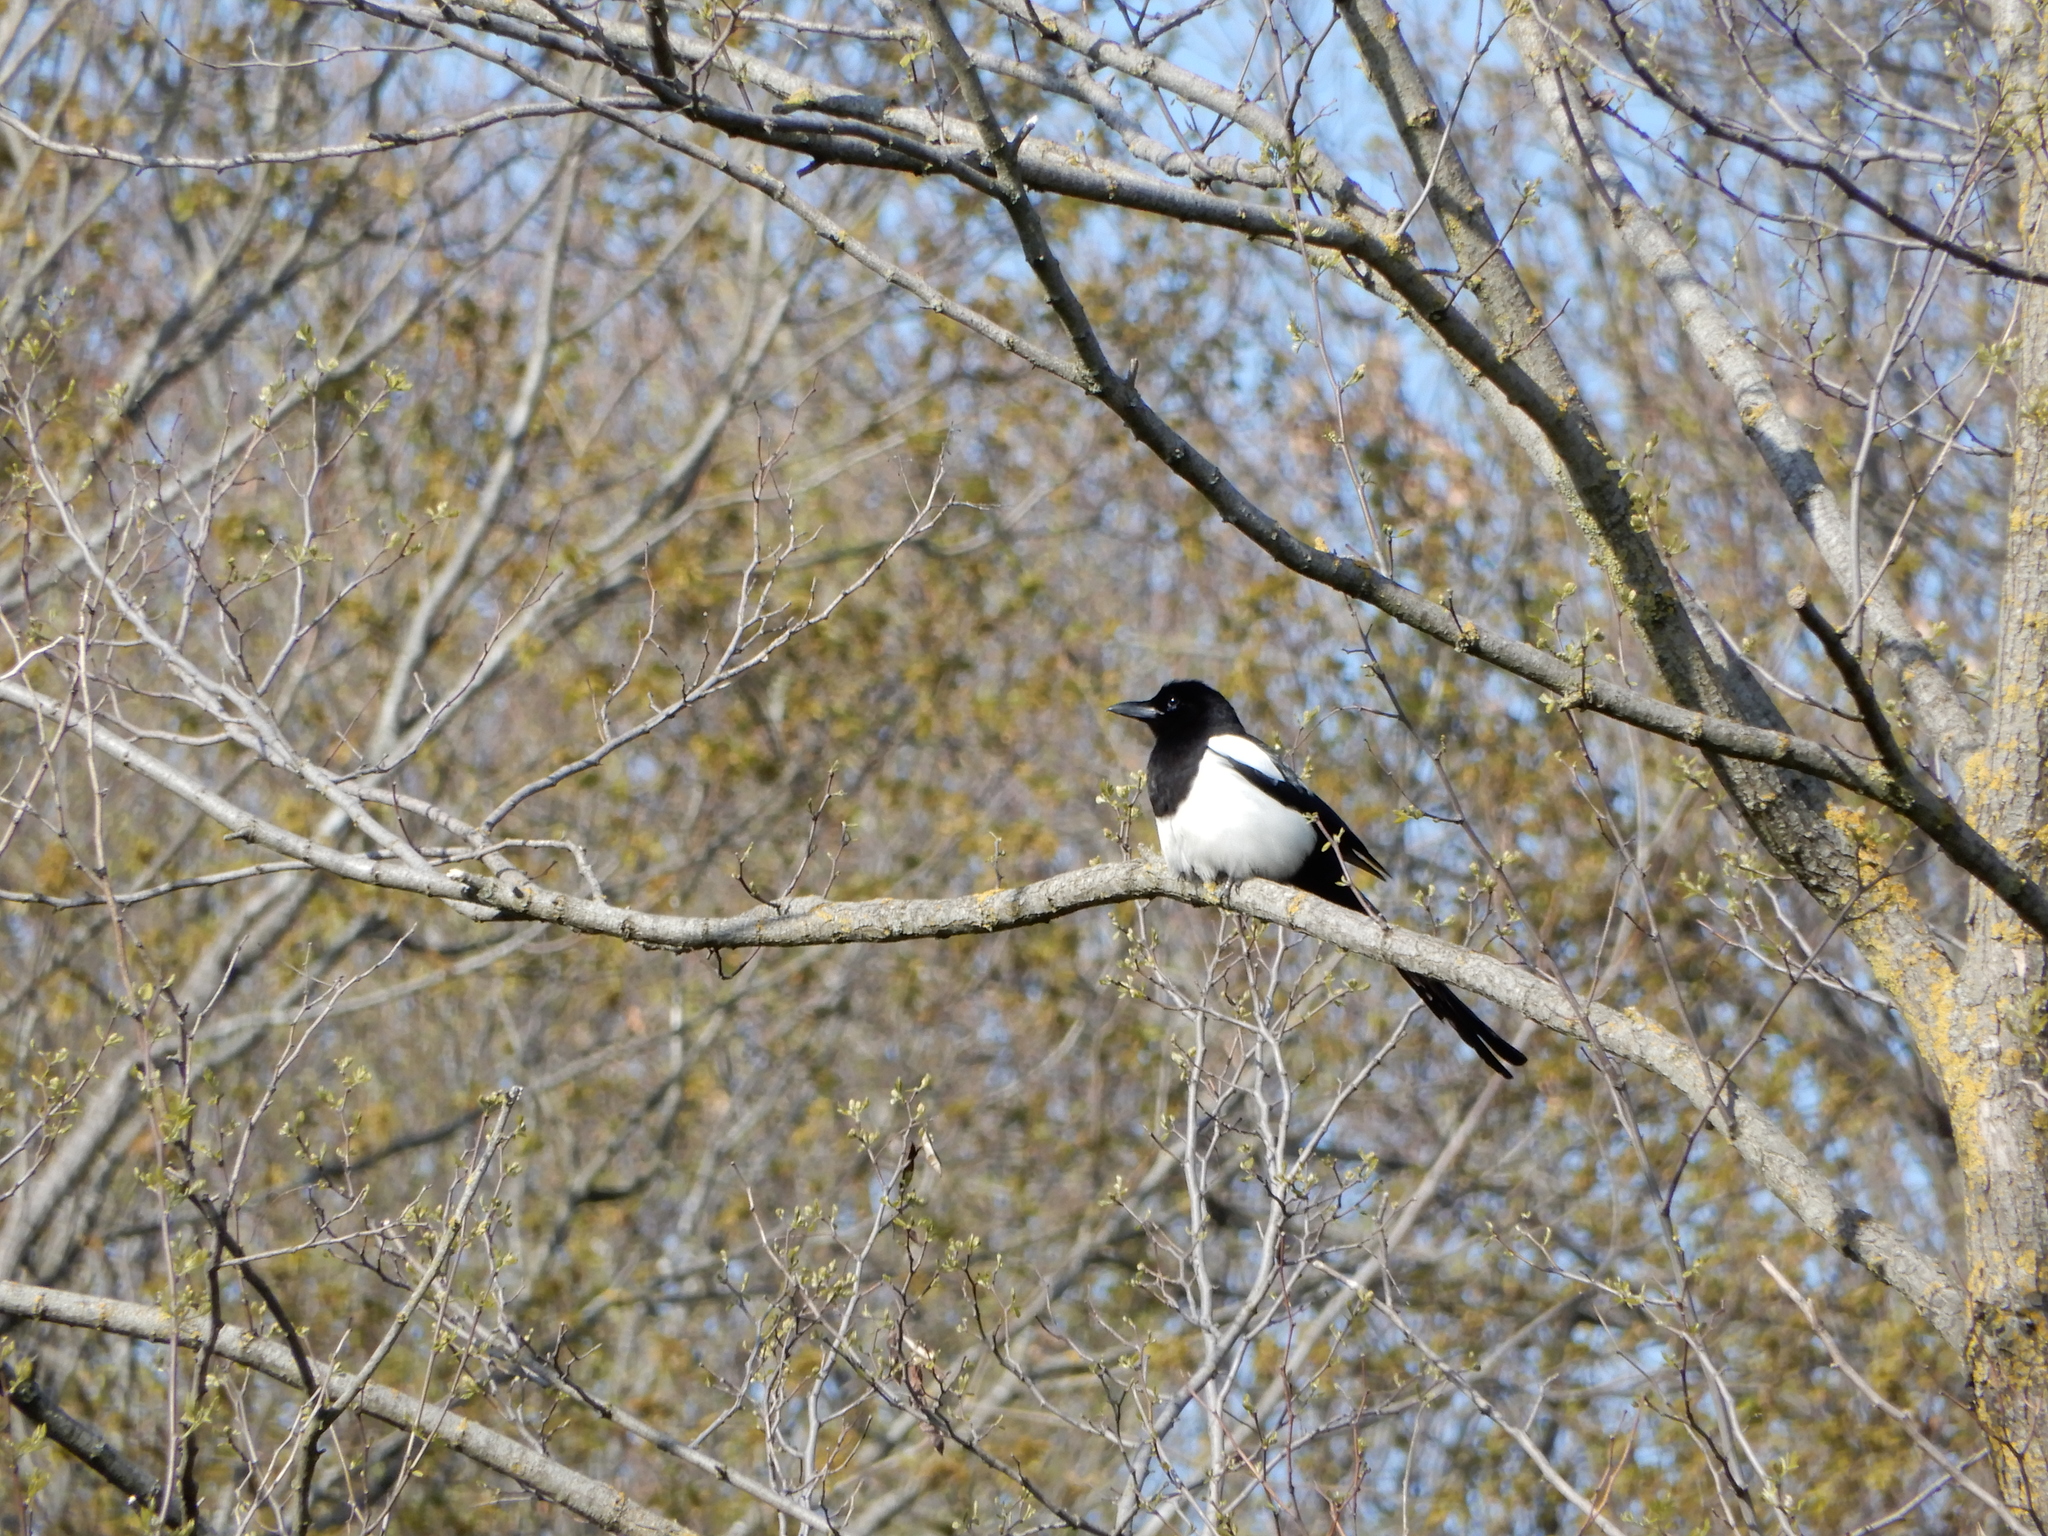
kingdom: Animalia
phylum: Chordata
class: Aves
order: Passeriformes
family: Corvidae
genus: Pica
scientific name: Pica pica
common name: Eurasian magpie
